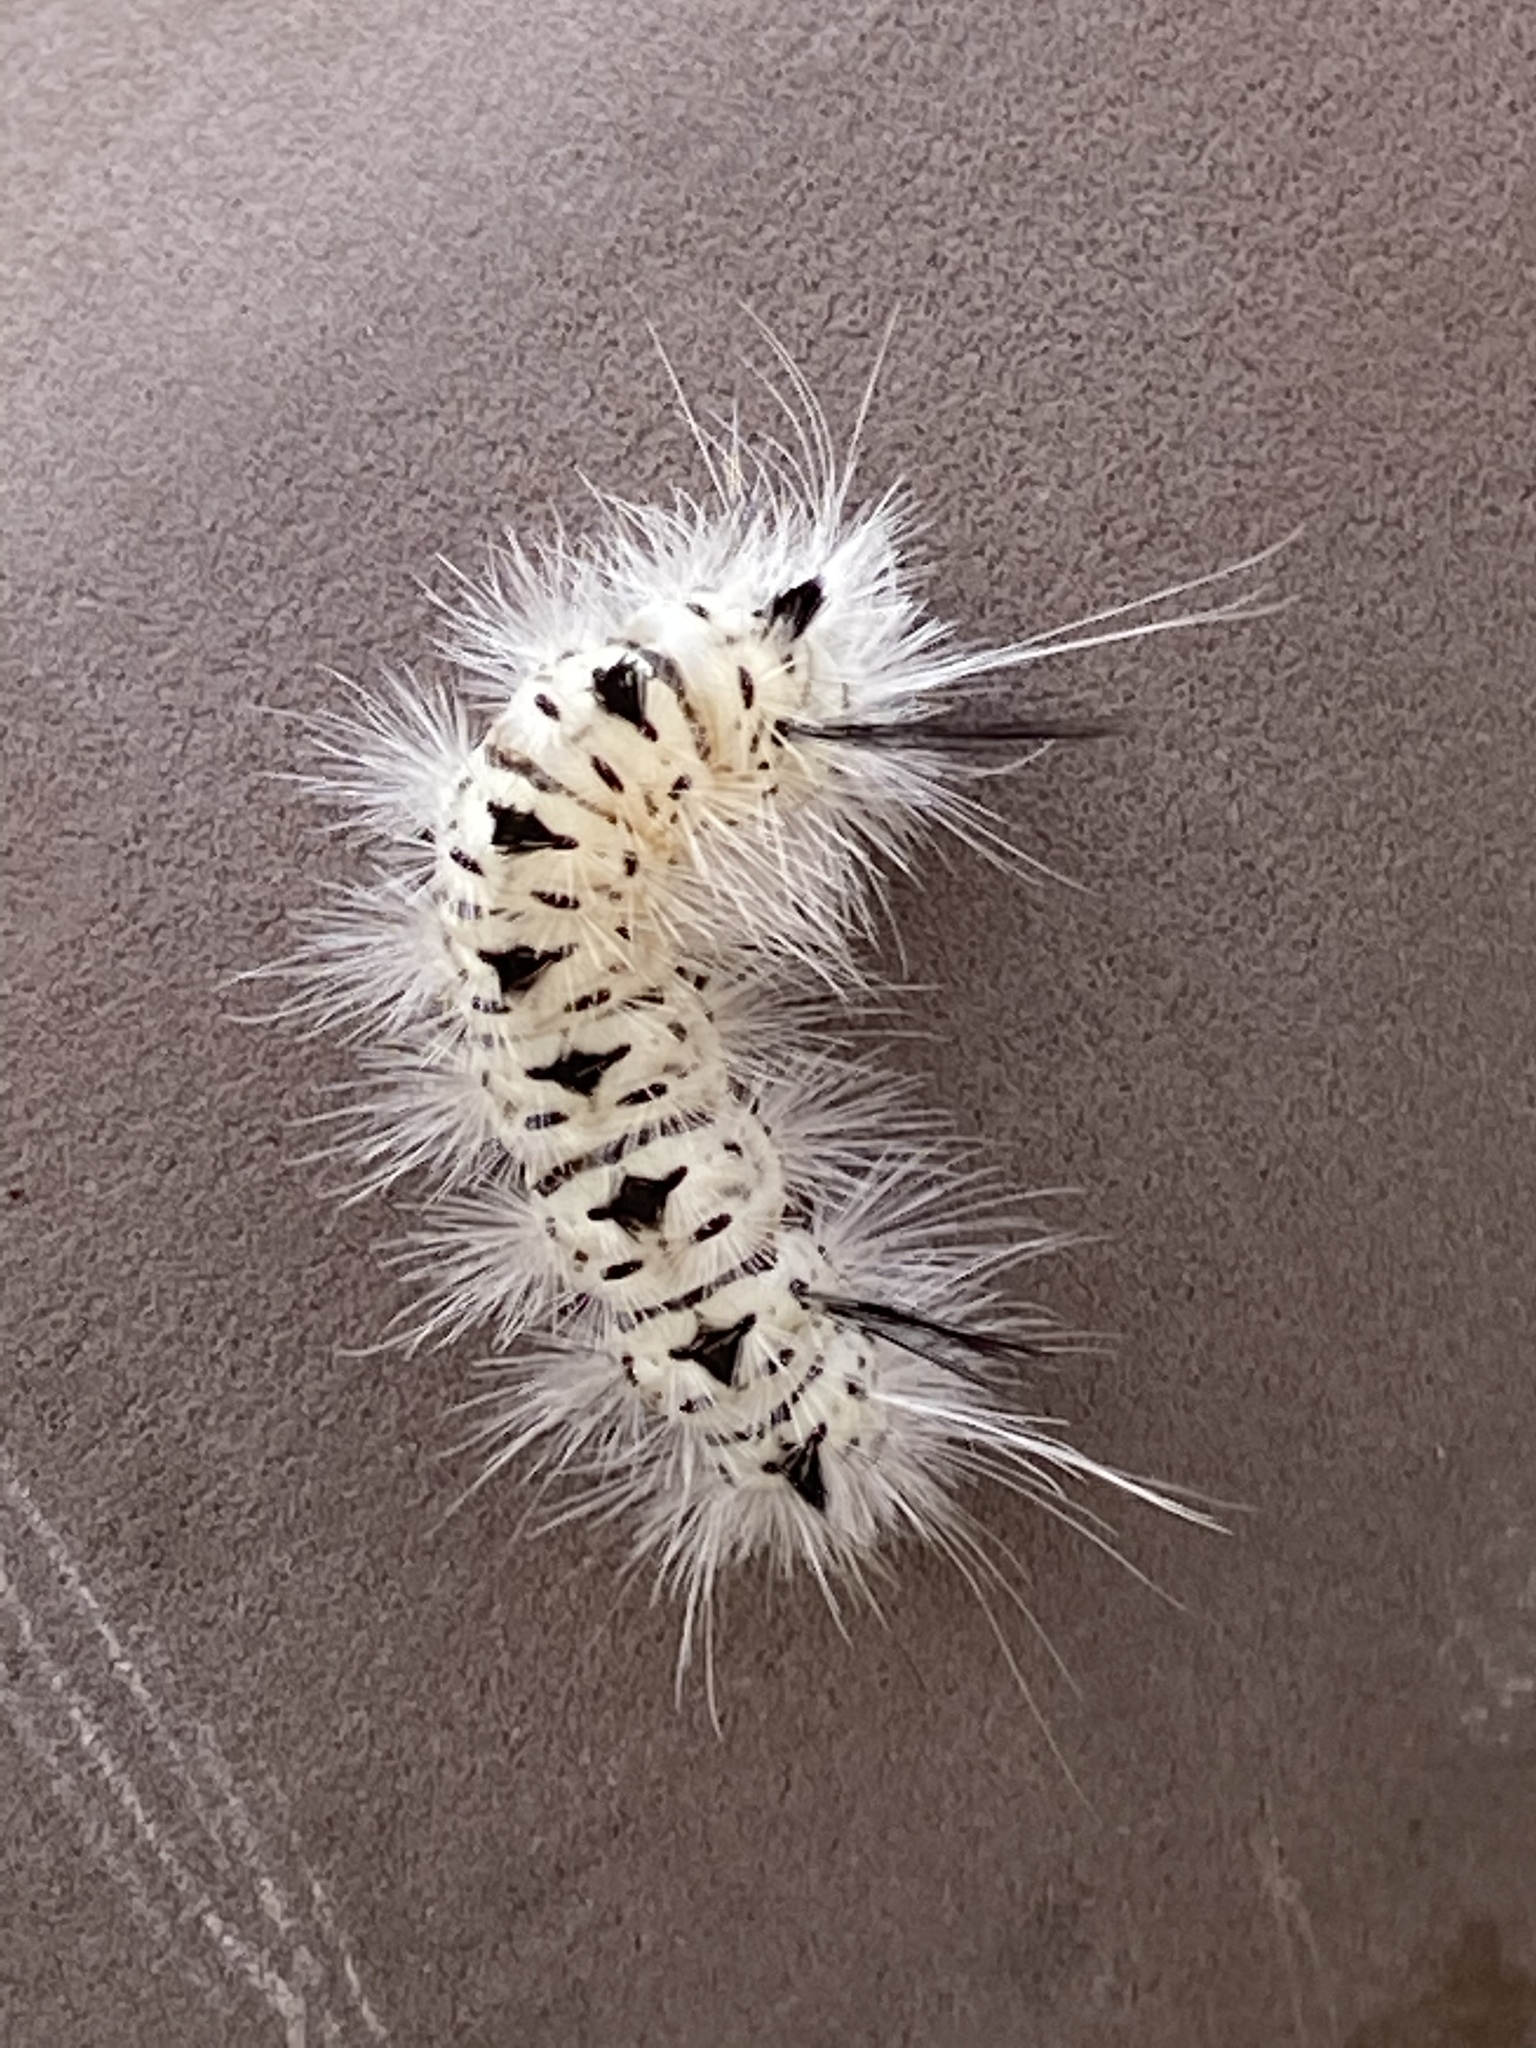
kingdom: Animalia
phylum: Arthropoda
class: Insecta
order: Lepidoptera
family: Erebidae
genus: Lophocampa
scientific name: Lophocampa caryae
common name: Hickory tussock moth
